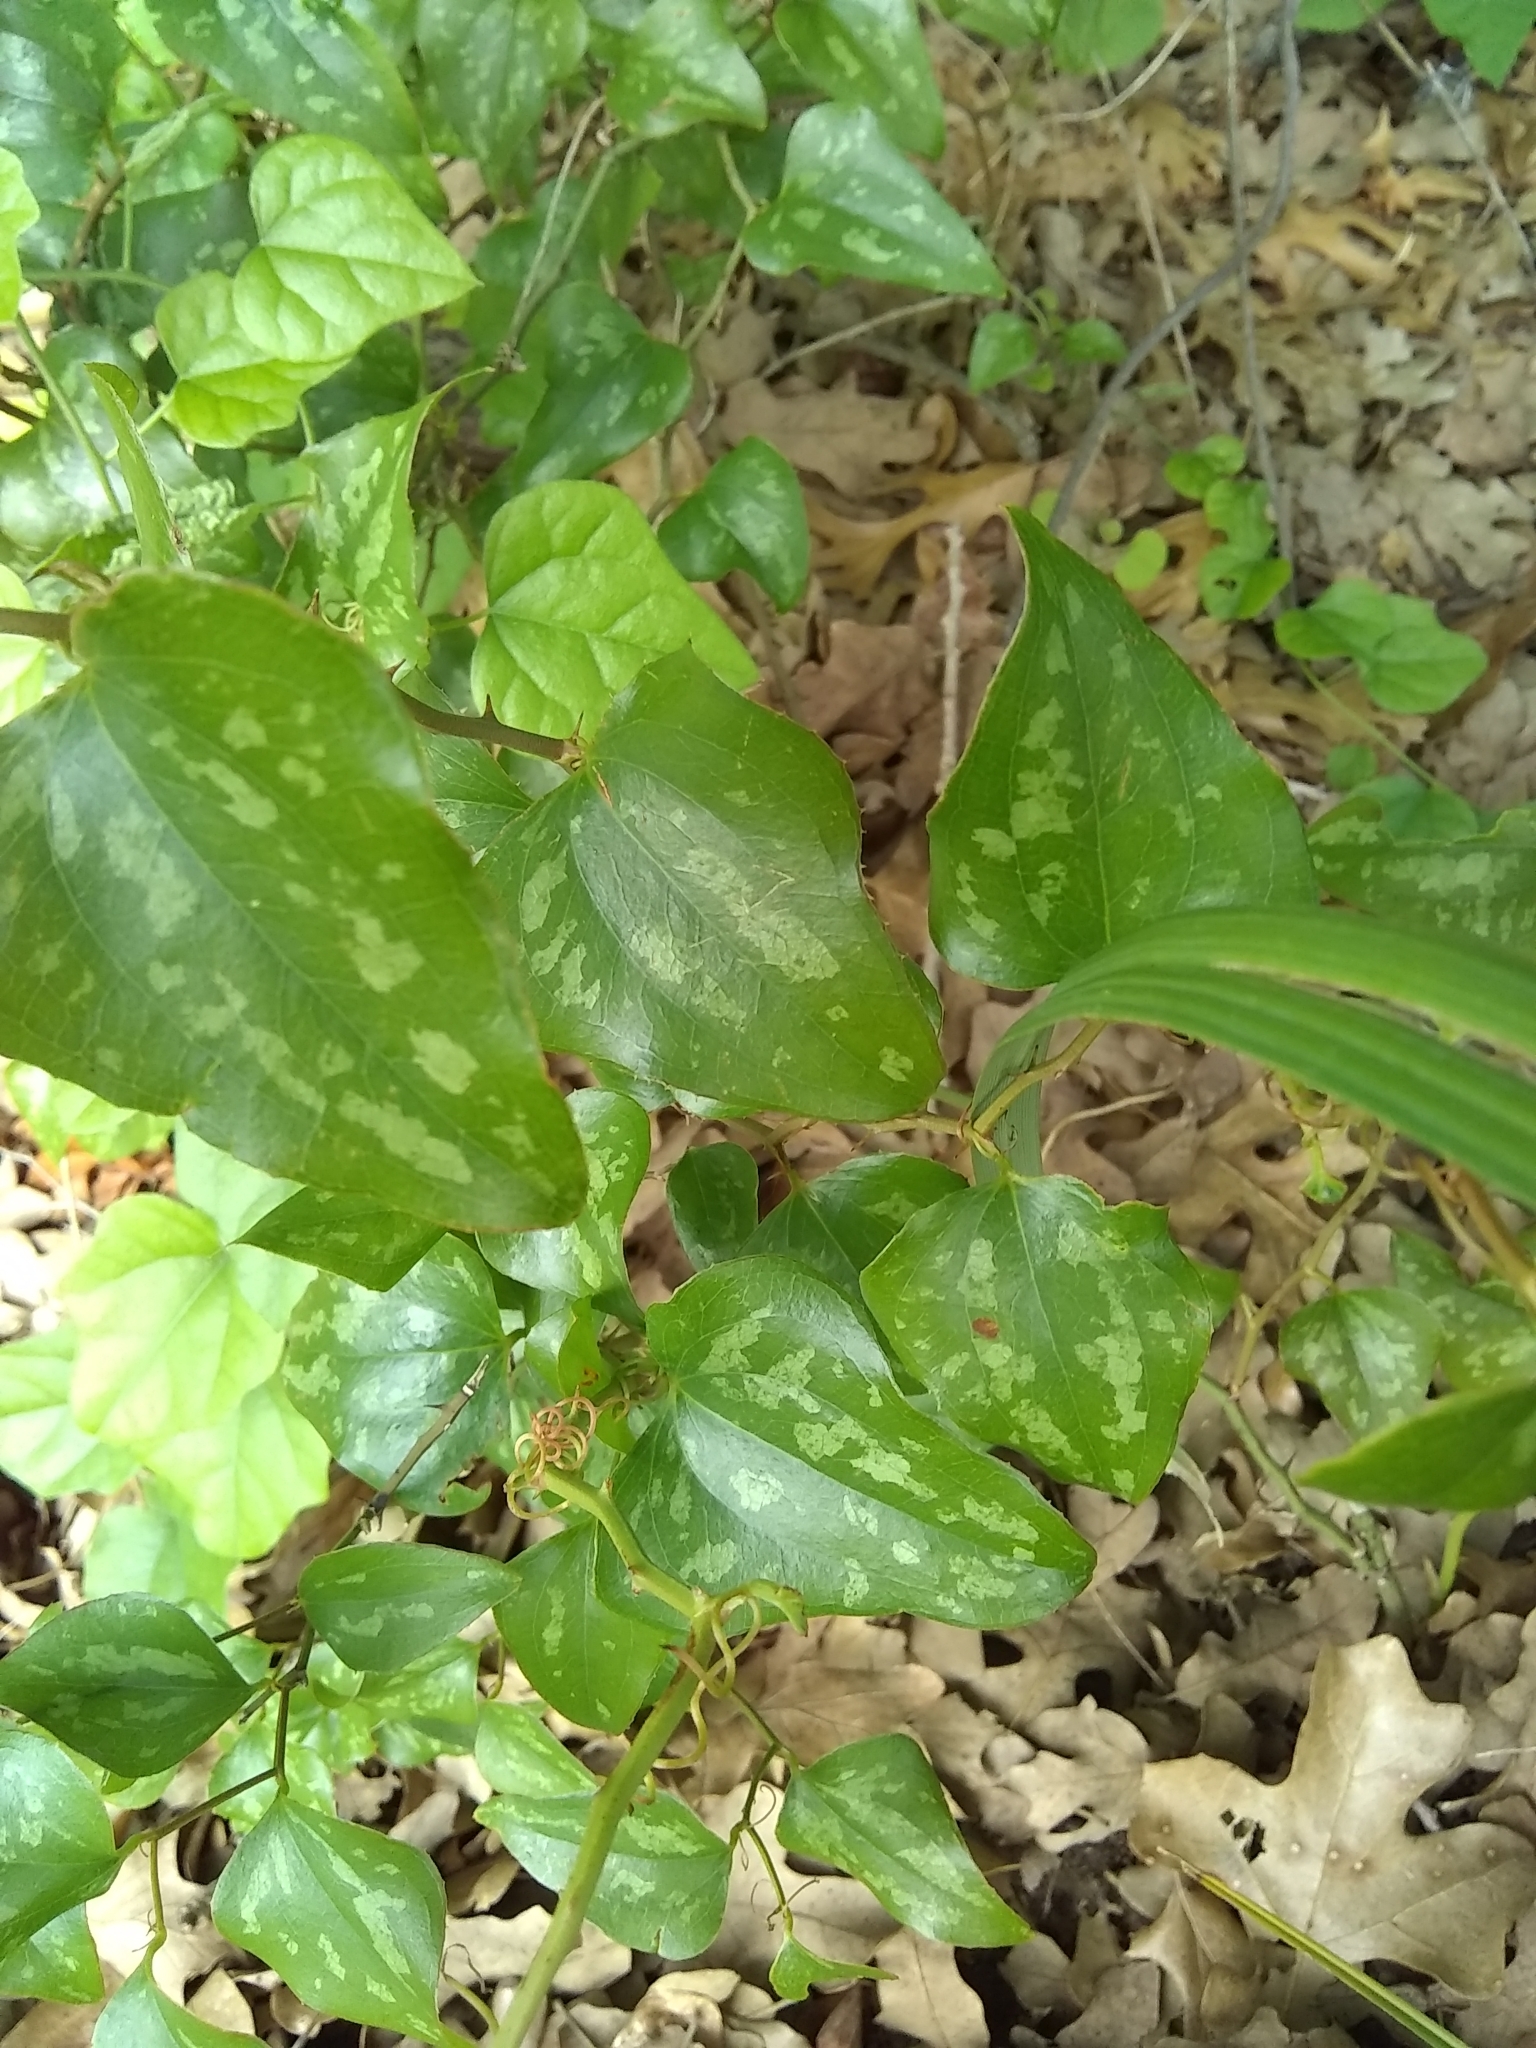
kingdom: Plantae
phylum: Tracheophyta
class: Liliopsida
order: Liliales
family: Smilacaceae
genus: Smilax
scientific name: Smilax bona-nox
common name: Catbrier
